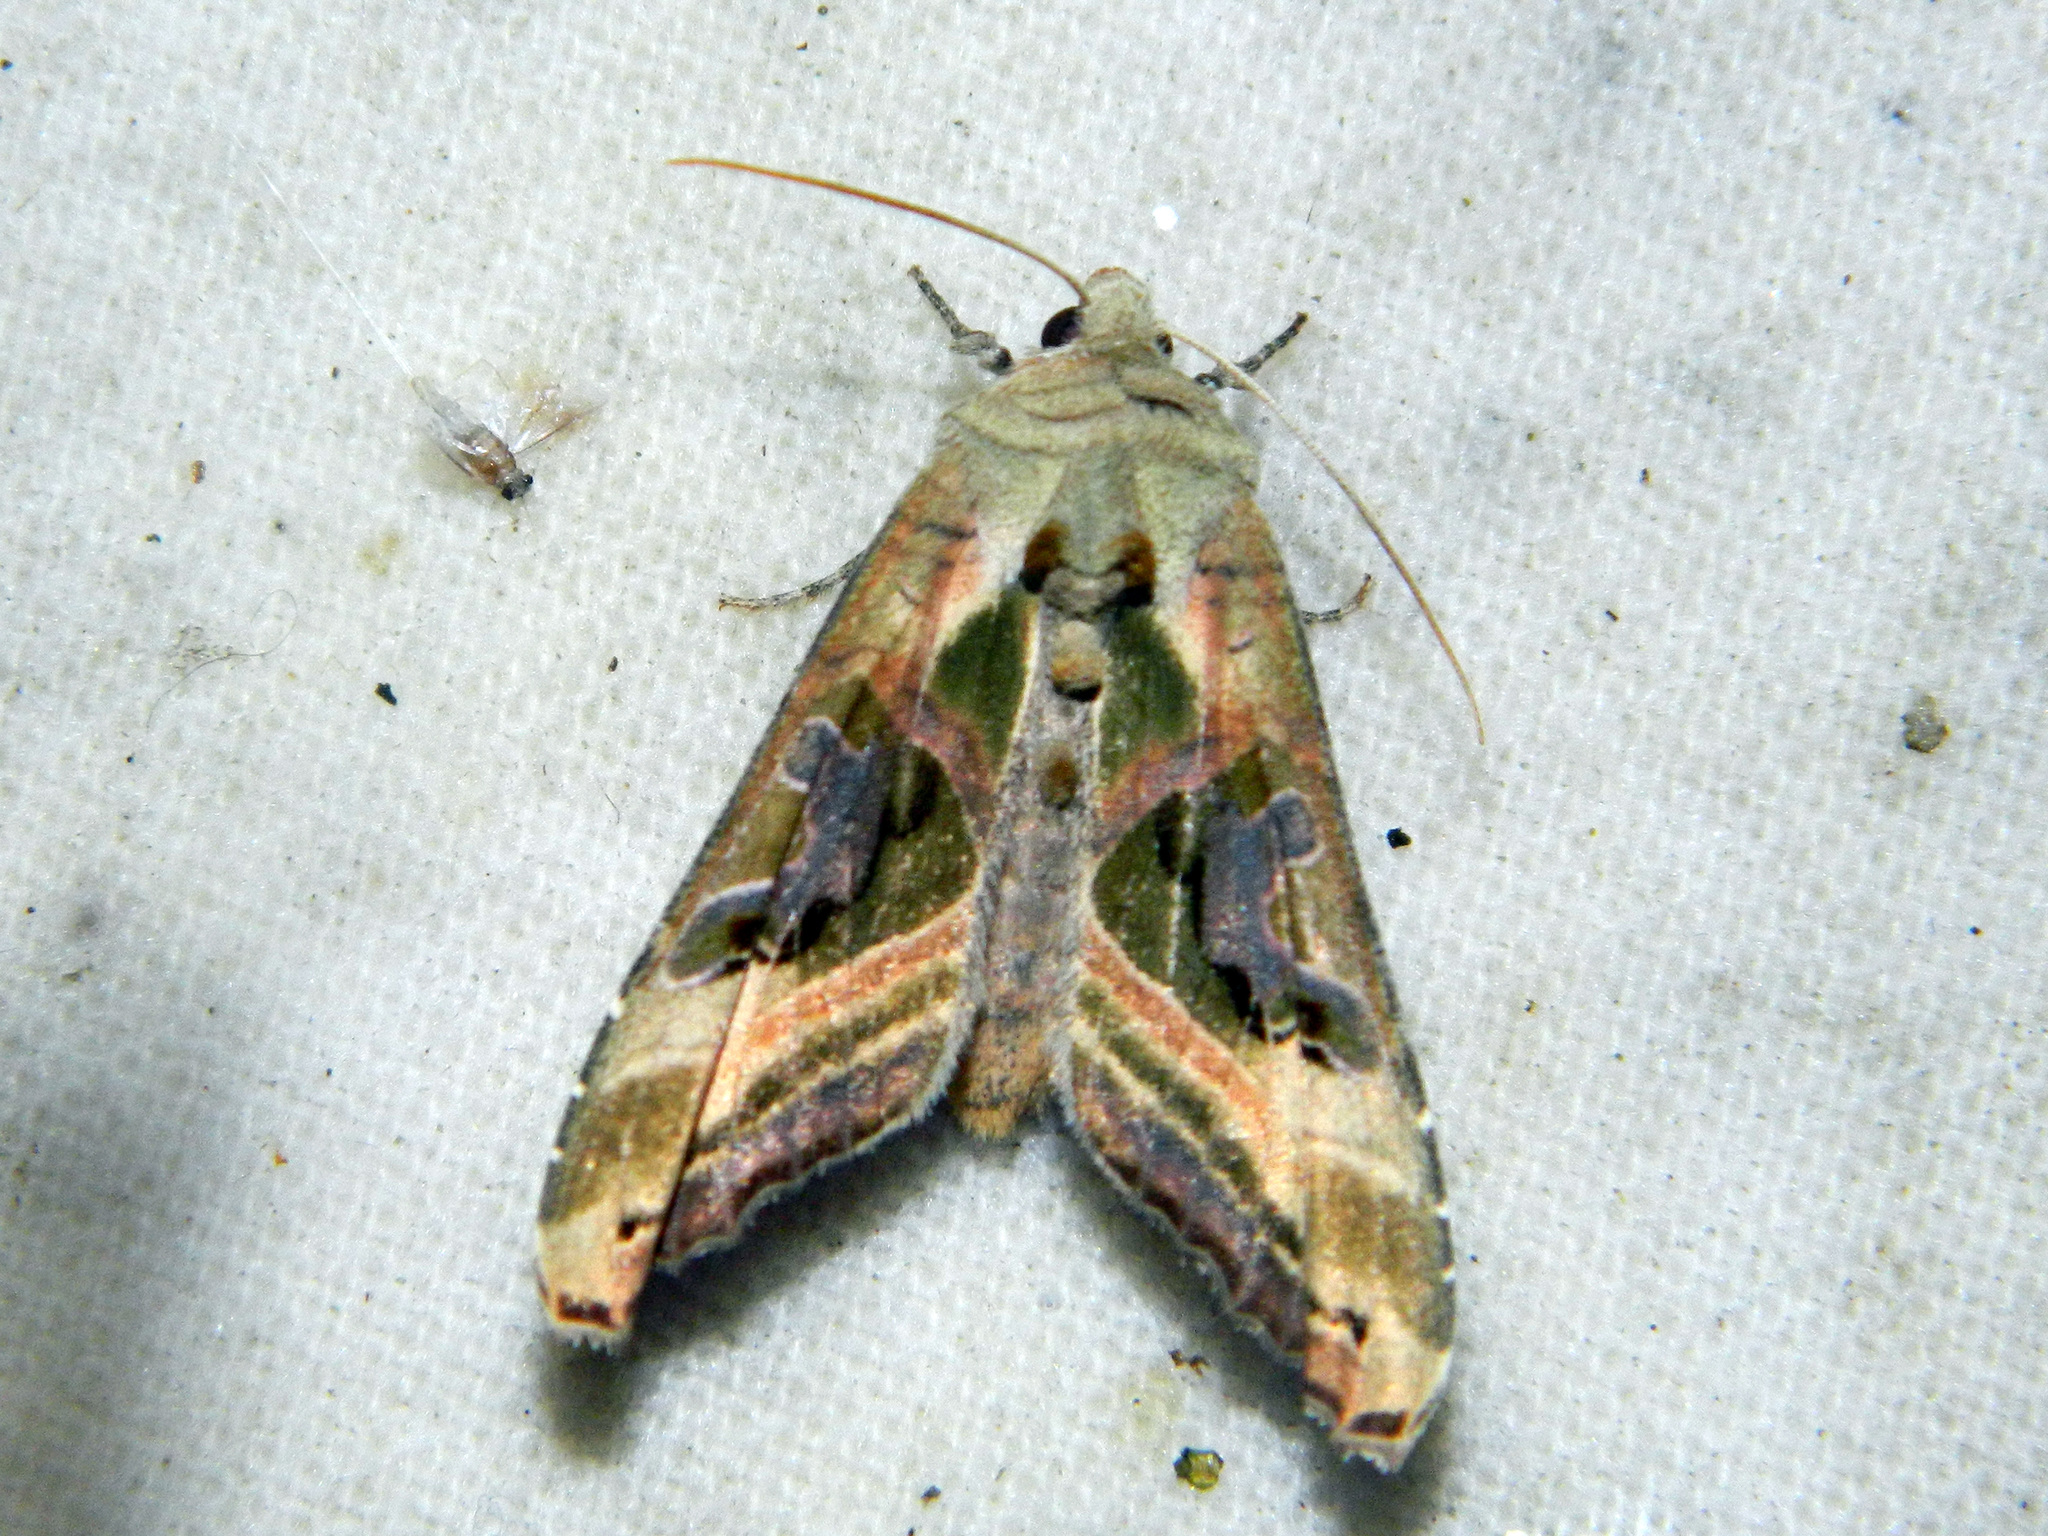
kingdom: Animalia
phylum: Arthropoda
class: Insecta
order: Lepidoptera
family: Noctuidae
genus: Phlogophora
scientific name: Phlogophora iris
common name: Olive angle shades
